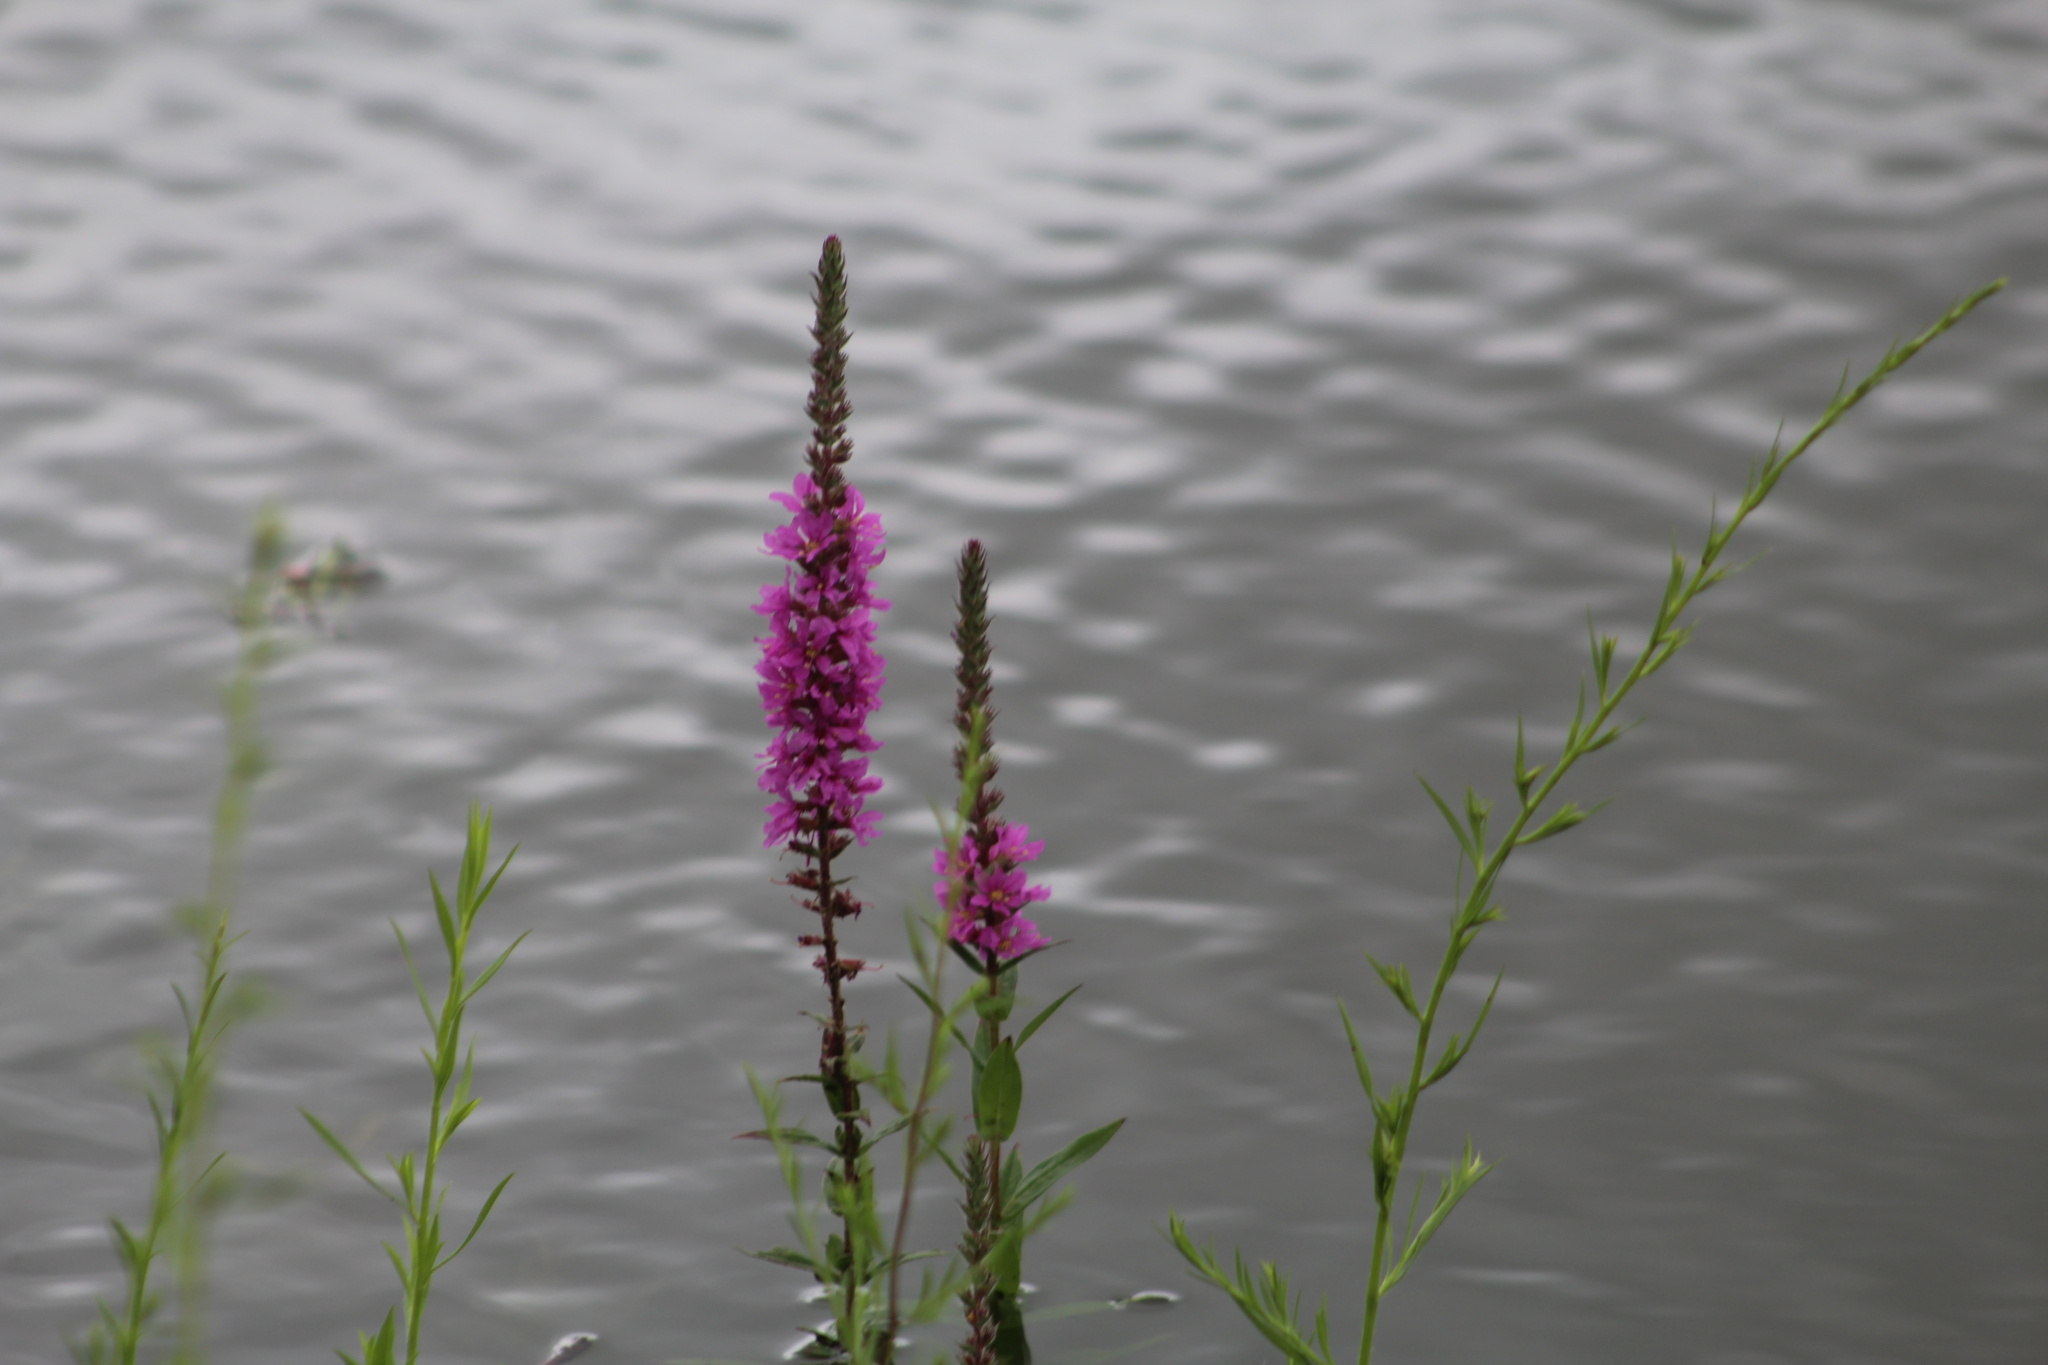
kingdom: Plantae
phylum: Tracheophyta
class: Magnoliopsida
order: Myrtales
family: Lythraceae
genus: Lythrum
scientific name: Lythrum salicaria
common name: Purple loosestrife
